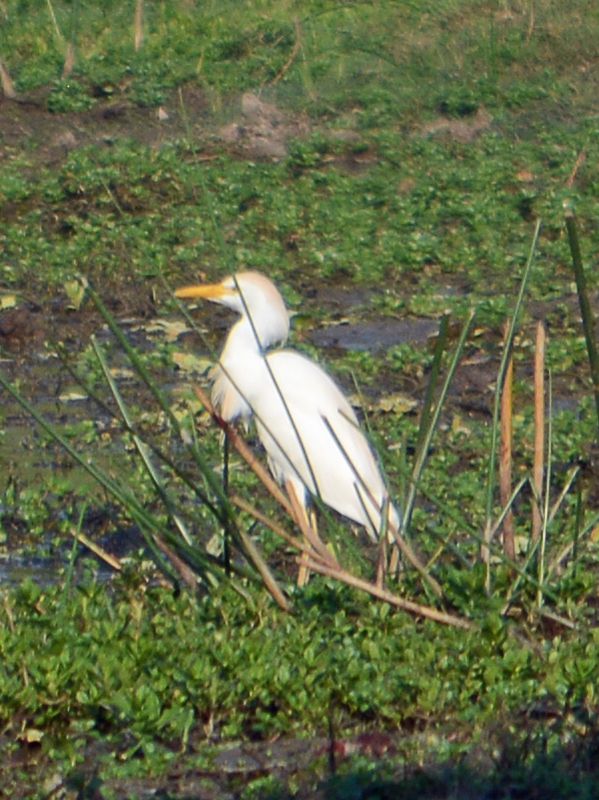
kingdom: Animalia
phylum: Chordata
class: Aves
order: Pelecaniformes
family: Ardeidae
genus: Bubulcus
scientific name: Bubulcus ibis
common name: Cattle egret
